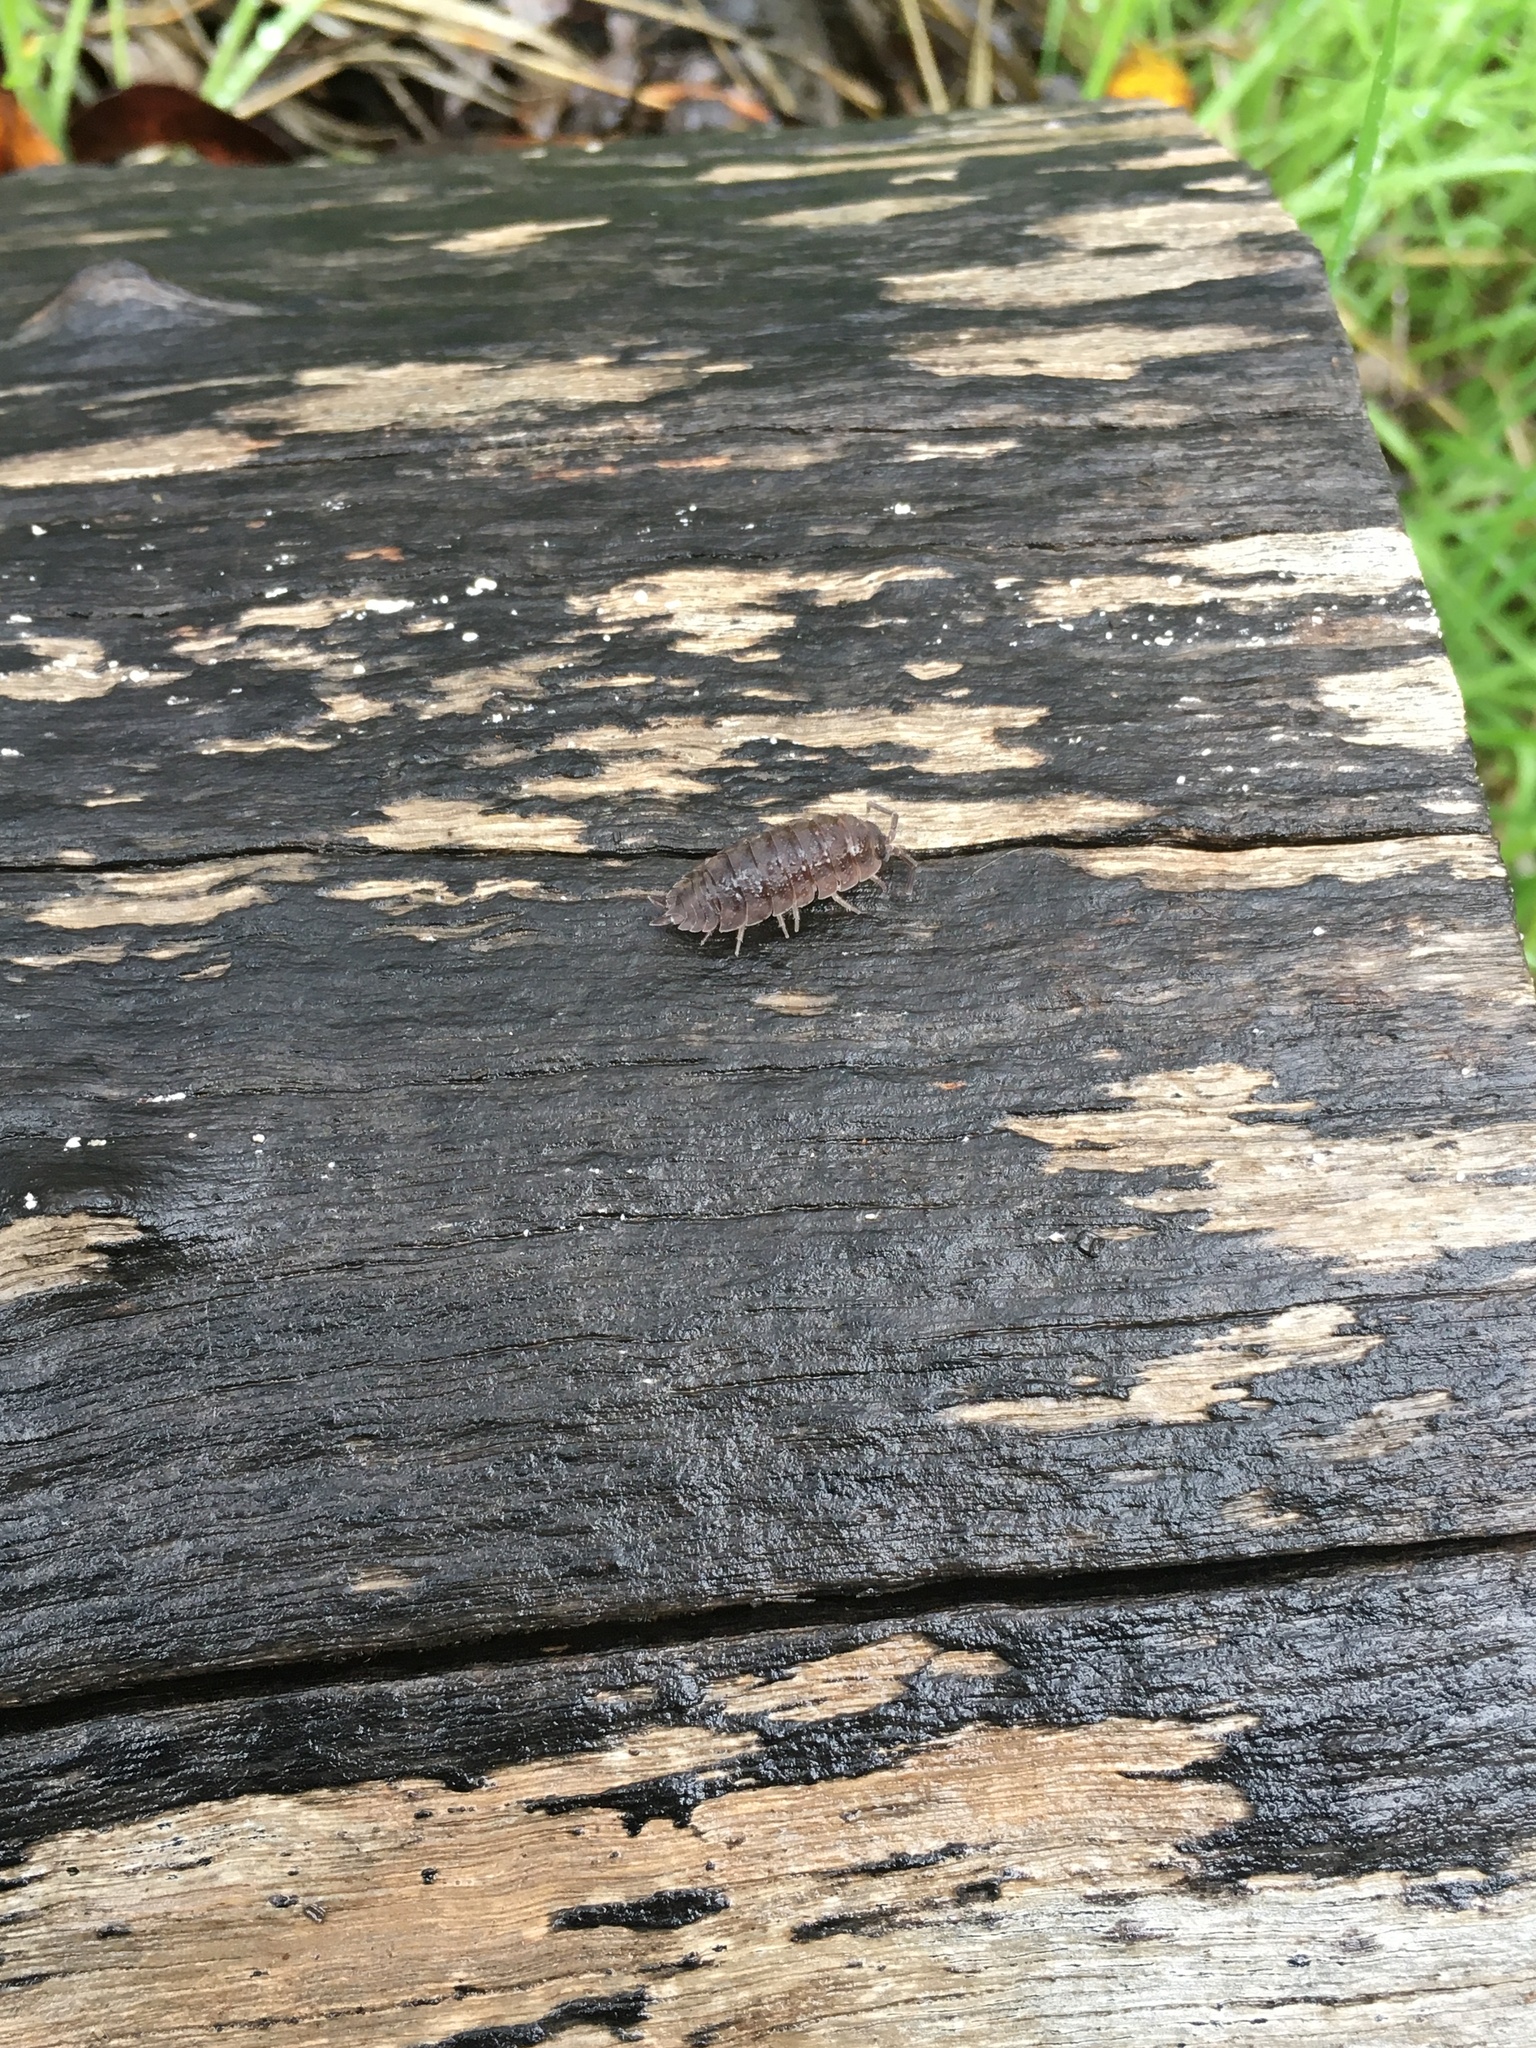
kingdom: Animalia
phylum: Arthropoda
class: Malacostraca
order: Isopoda
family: Porcellionidae
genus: Porcellio
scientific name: Porcellio scaber
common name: Common rough woodlouse
